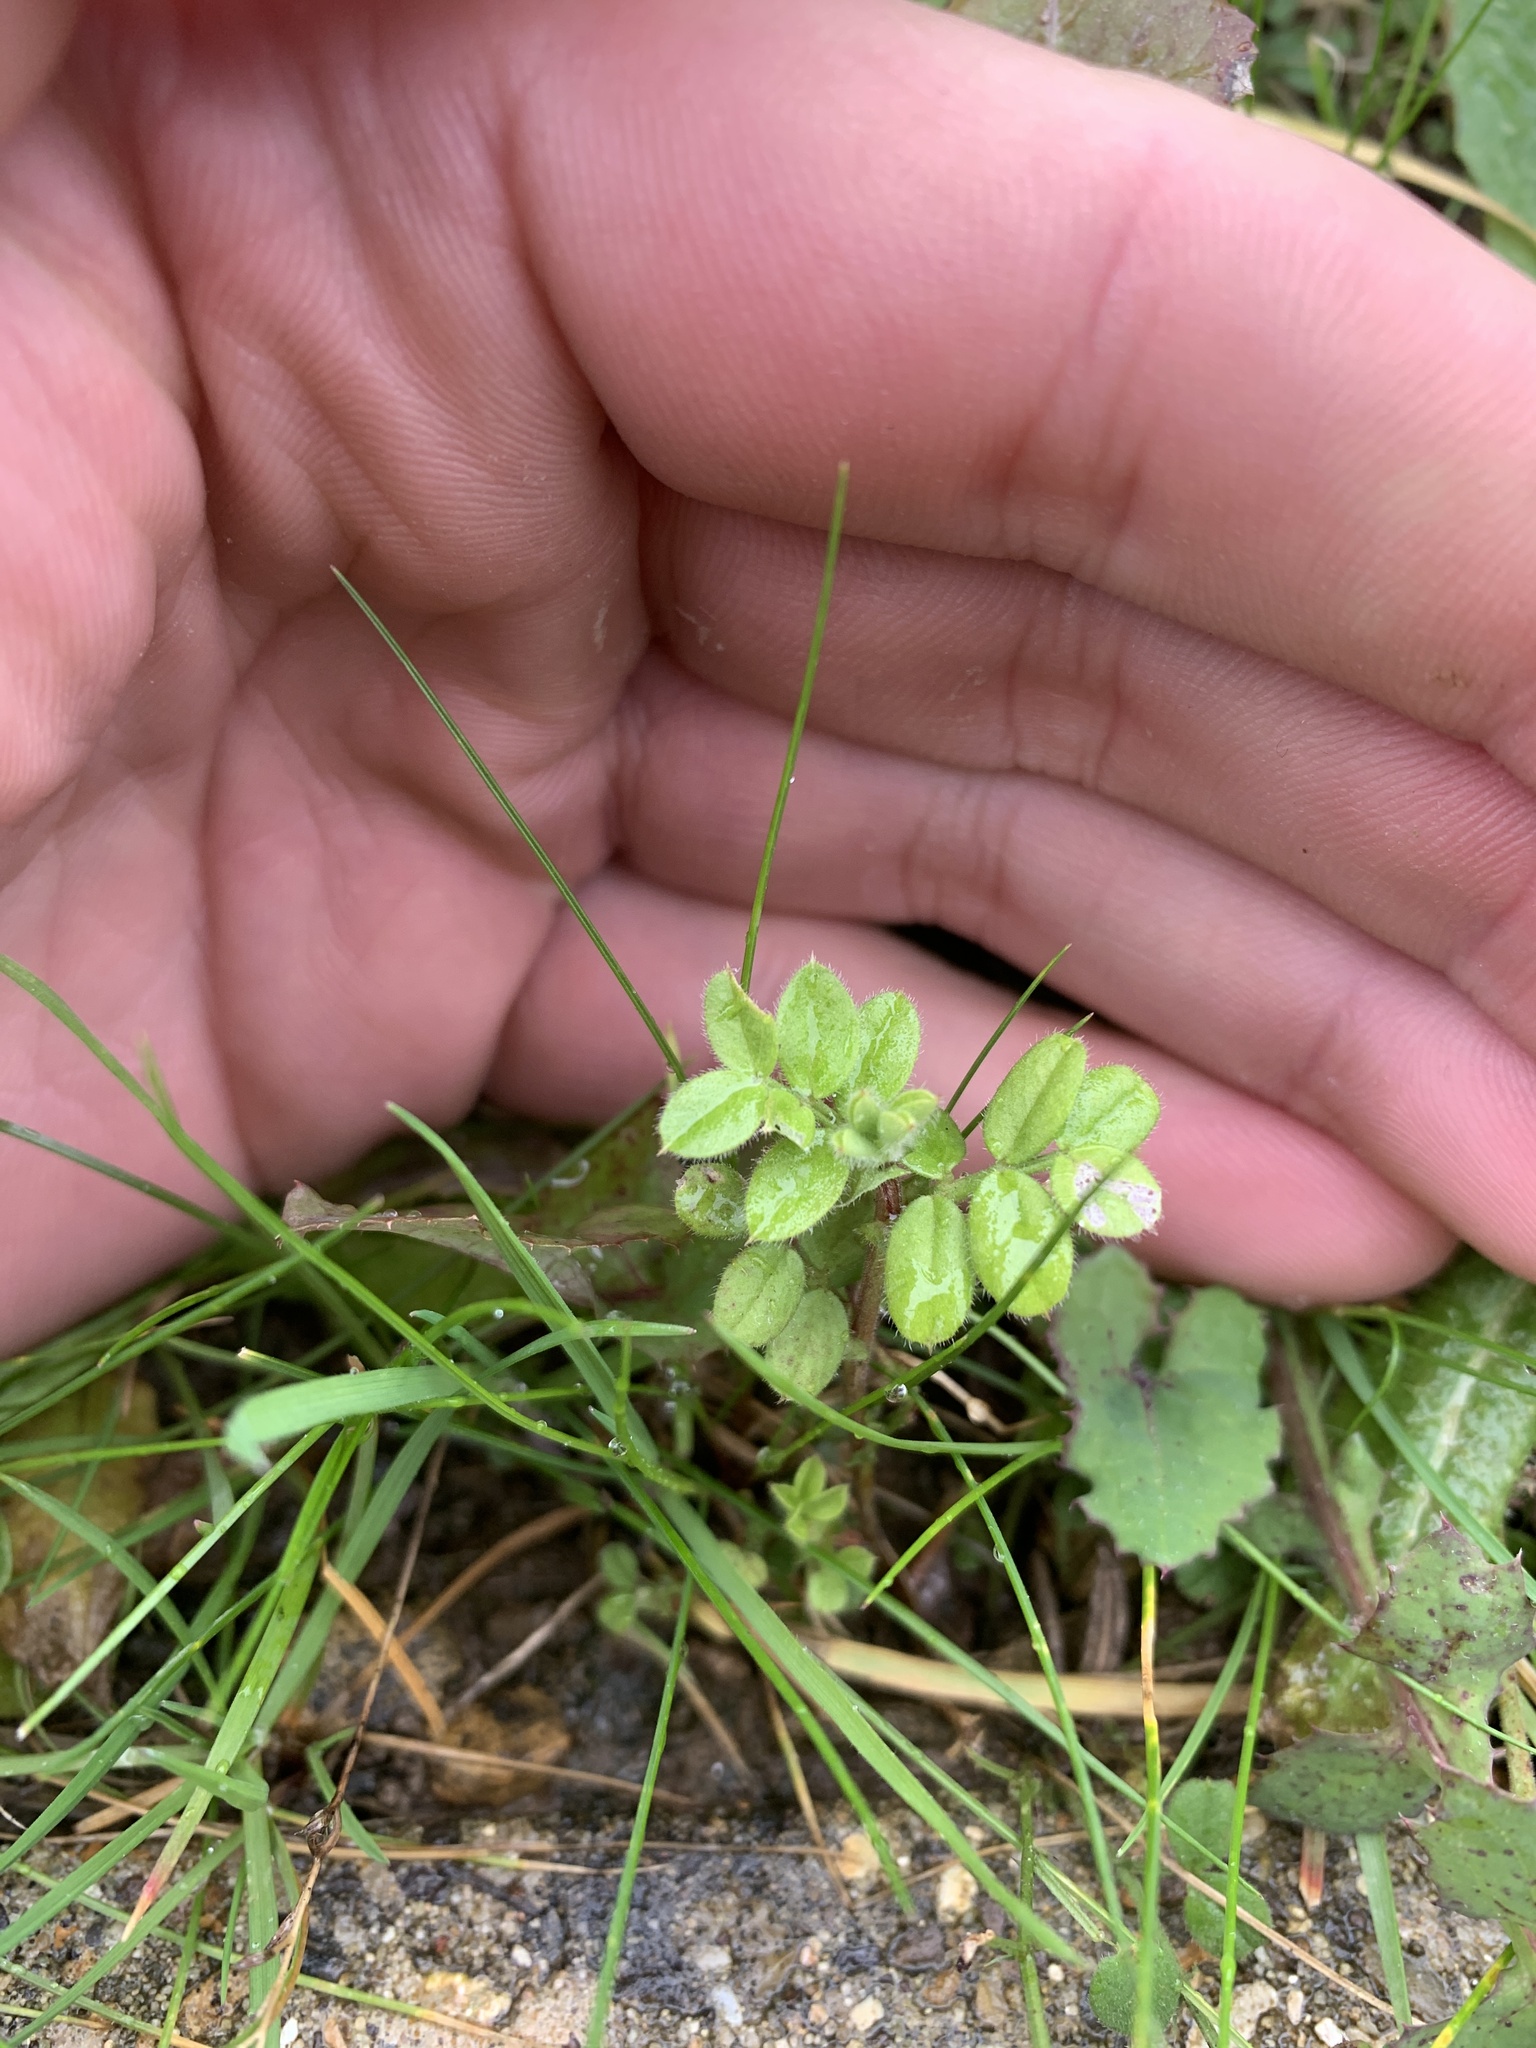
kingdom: Plantae
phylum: Tracheophyta
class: Magnoliopsida
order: Lamiales
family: Plantaginaceae
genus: Veronica
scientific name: Veronica arvensis
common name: Corn speedwell
